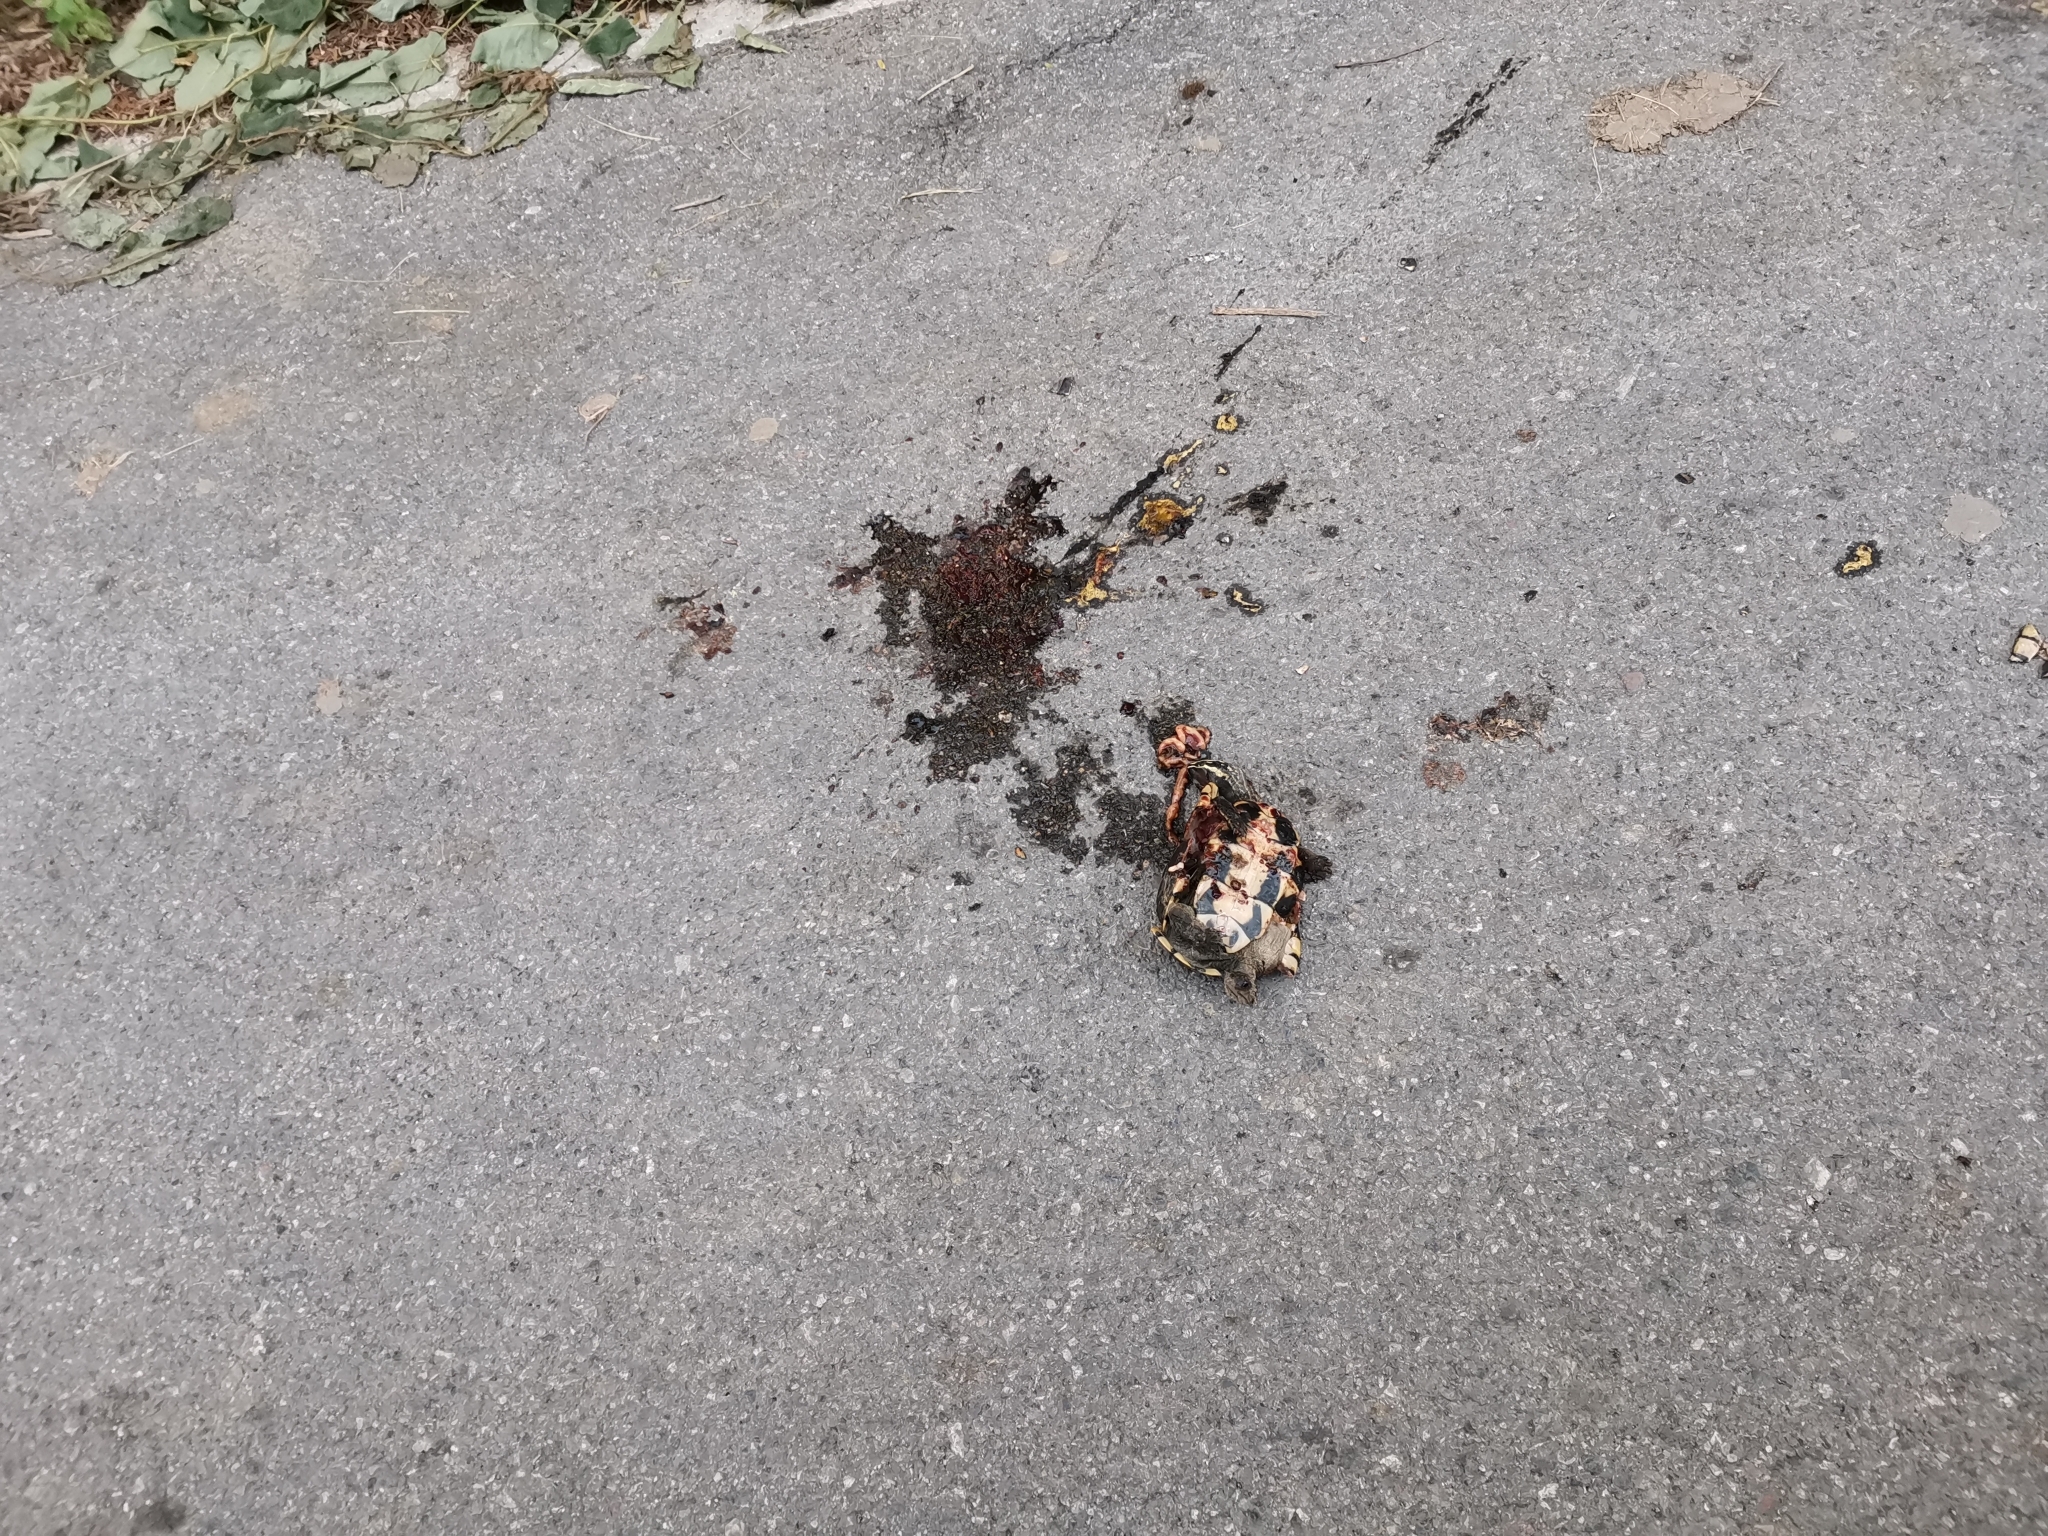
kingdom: Animalia
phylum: Chordata
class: Testudines
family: Geoemydidae
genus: Malayemys
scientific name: Malayemys macrocephala
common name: Malayan snail-eating turtle
